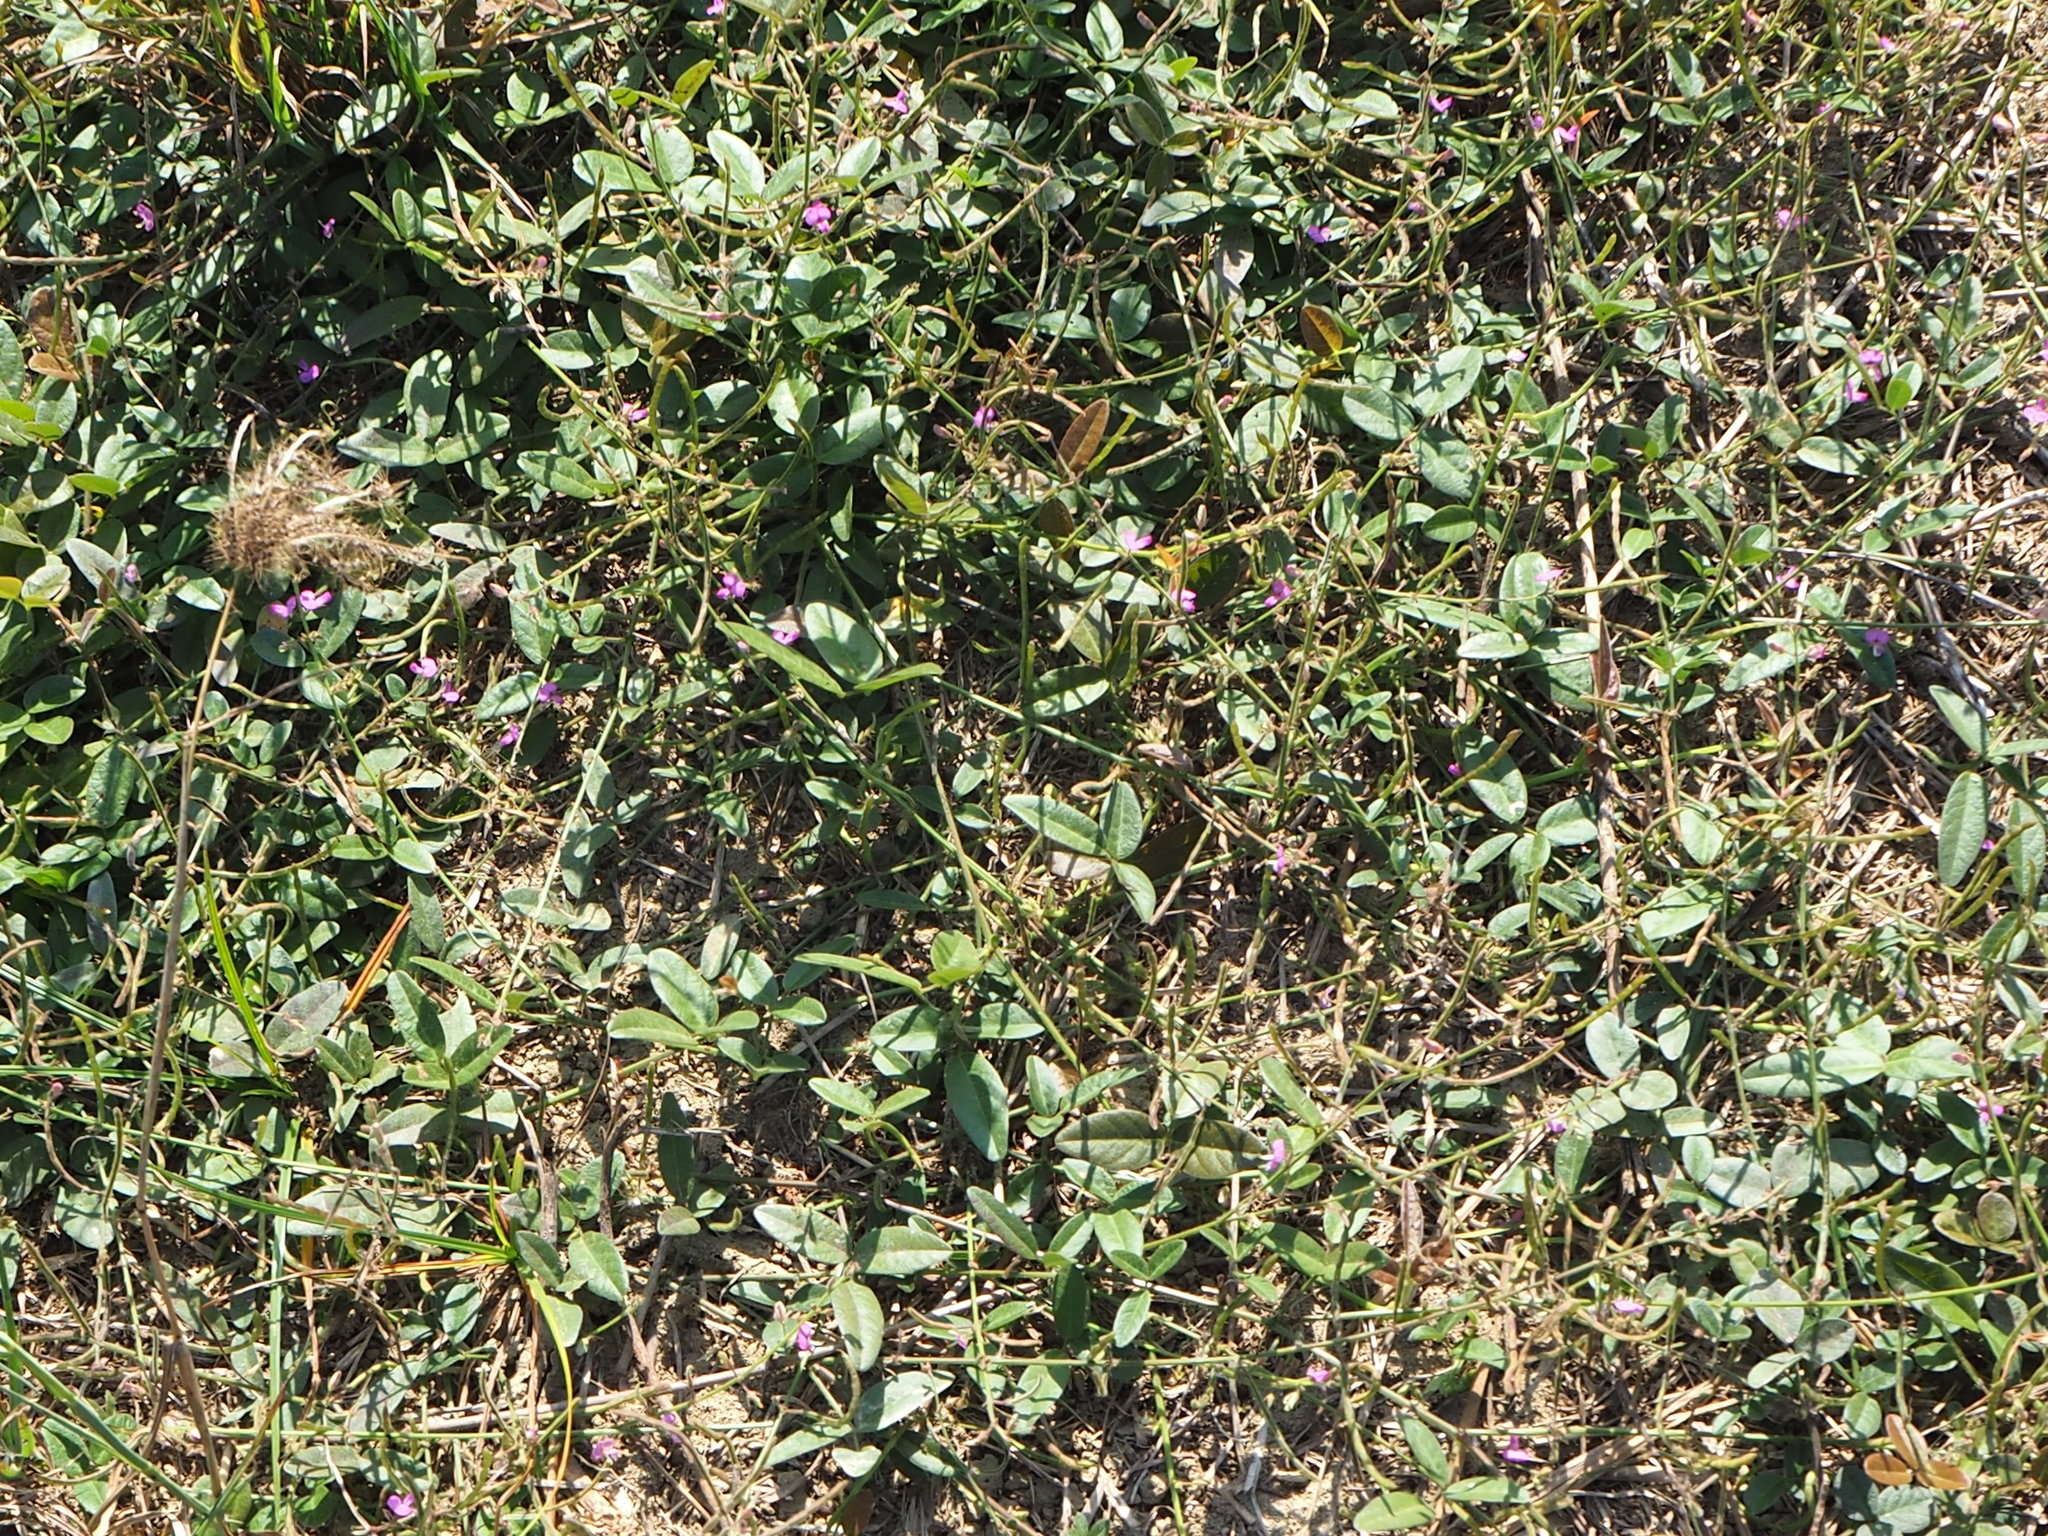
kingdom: Plantae
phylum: Tracheophyta
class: Magnoliopsida
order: Fabales
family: Fabaceae
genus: Desmodium
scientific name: Desmodium scorpiurus
